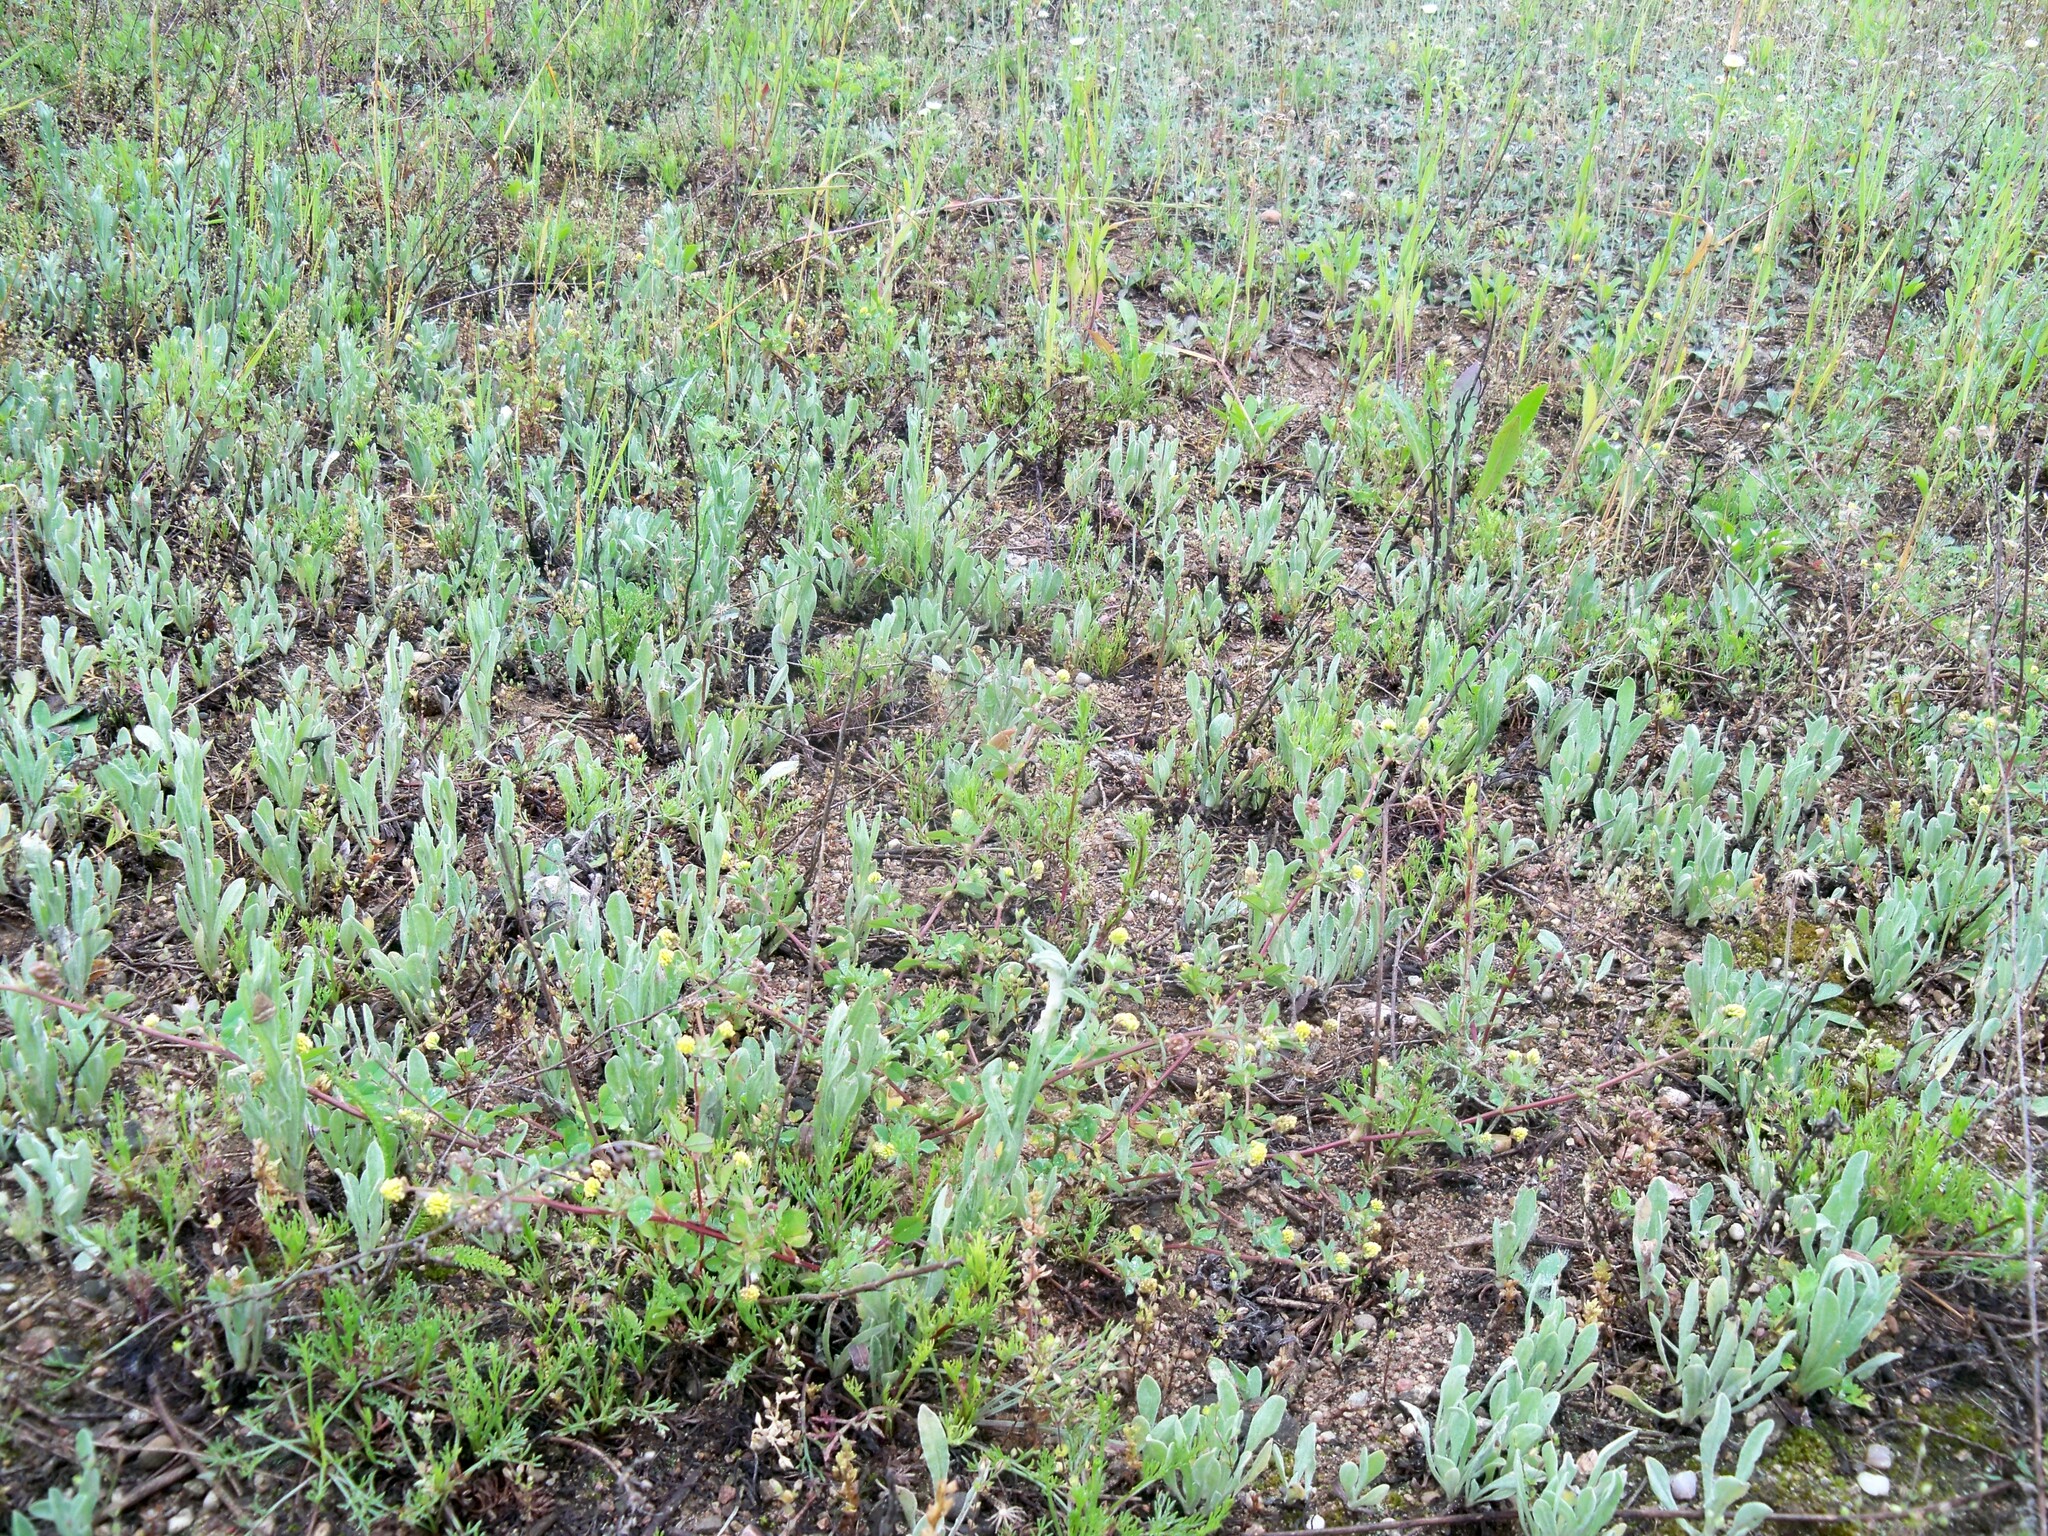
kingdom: Plantae
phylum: Tracheophyta
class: Magnoliopsida
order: Asterales
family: Asteraceae
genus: Helichrysum
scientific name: Helichrysum arenarium
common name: Strawflower
